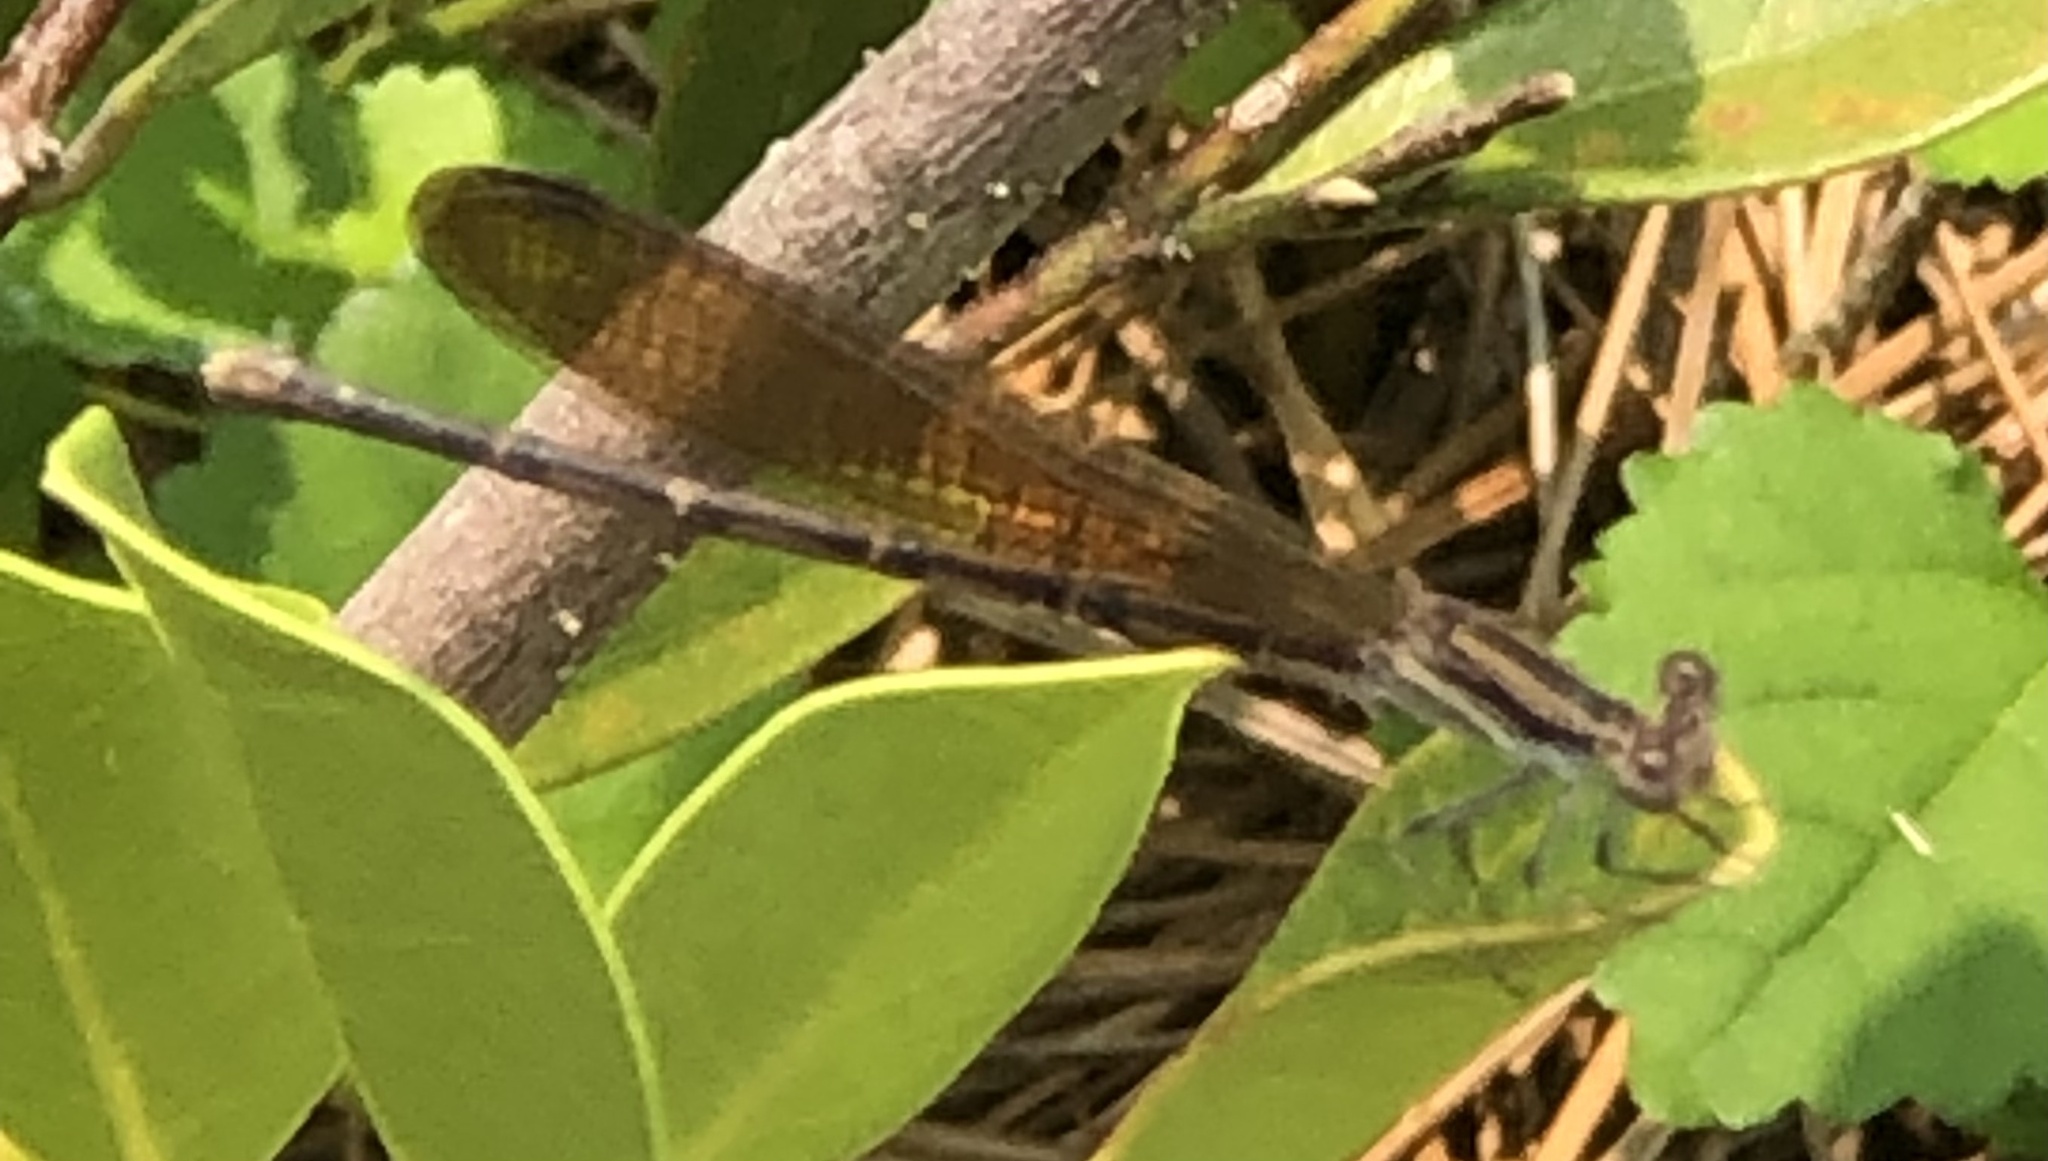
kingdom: Animalia
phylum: Arthropoda
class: Insecta
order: Odonata
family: Coenagrionidae
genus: Argia
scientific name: Argia fumipennis
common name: Variable dancer
